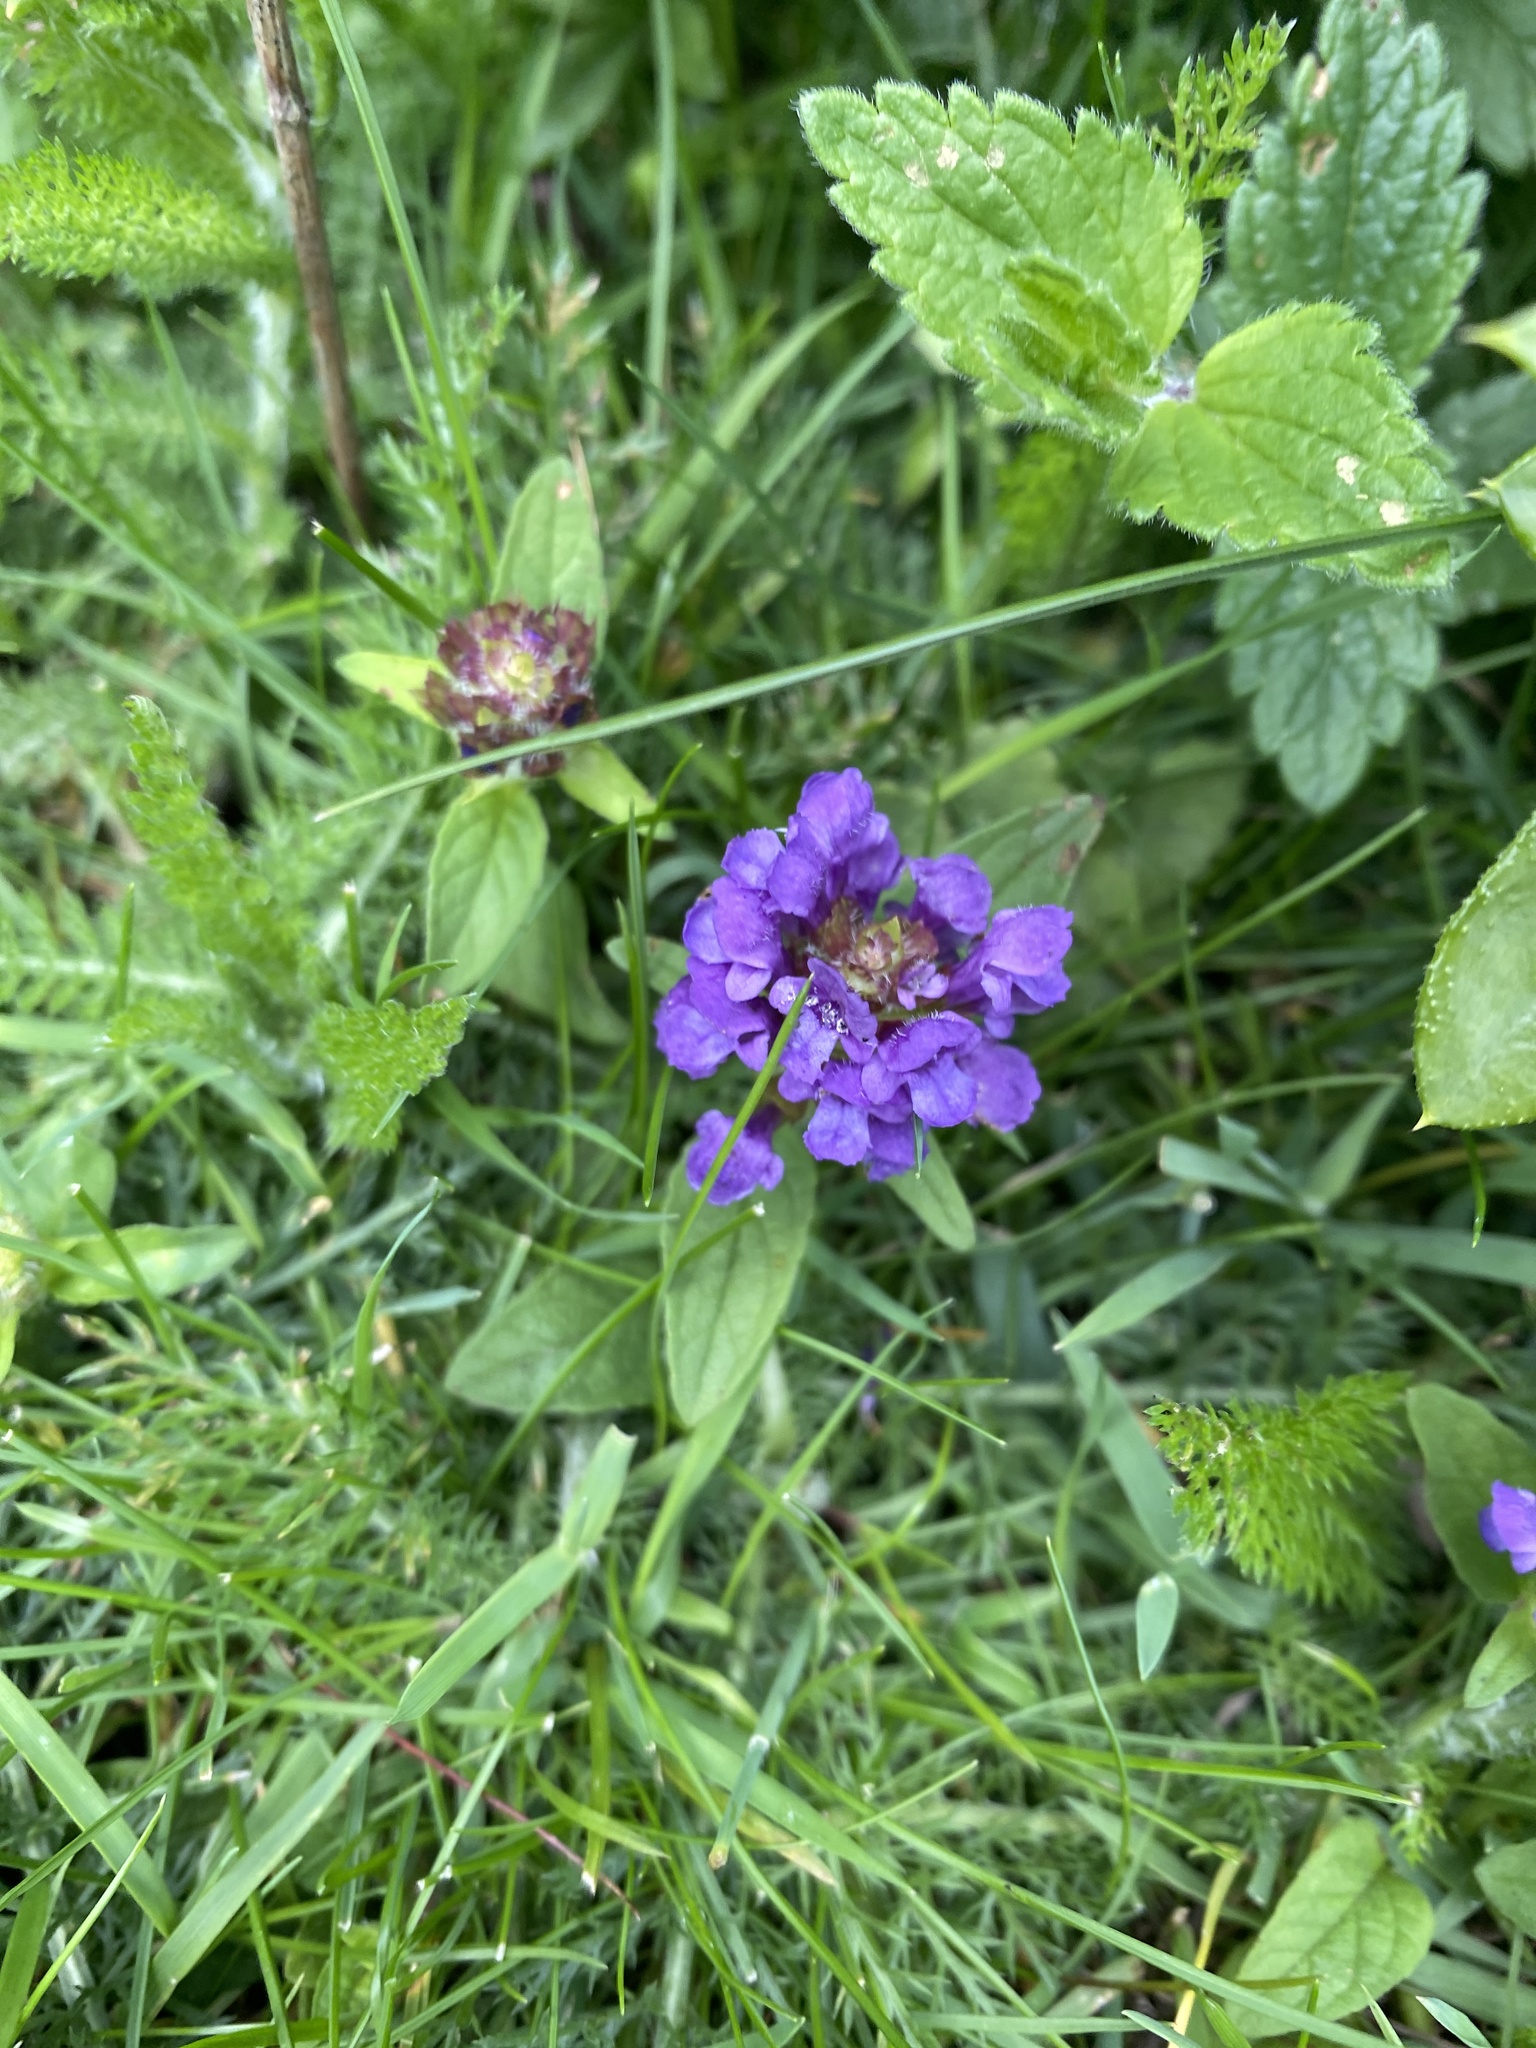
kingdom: Plantae
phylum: Tracheophyta
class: Magnoliopsida
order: Lamiales
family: Lamiaceae
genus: Prunella
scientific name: Prunella vulgaris
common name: Heal-all
